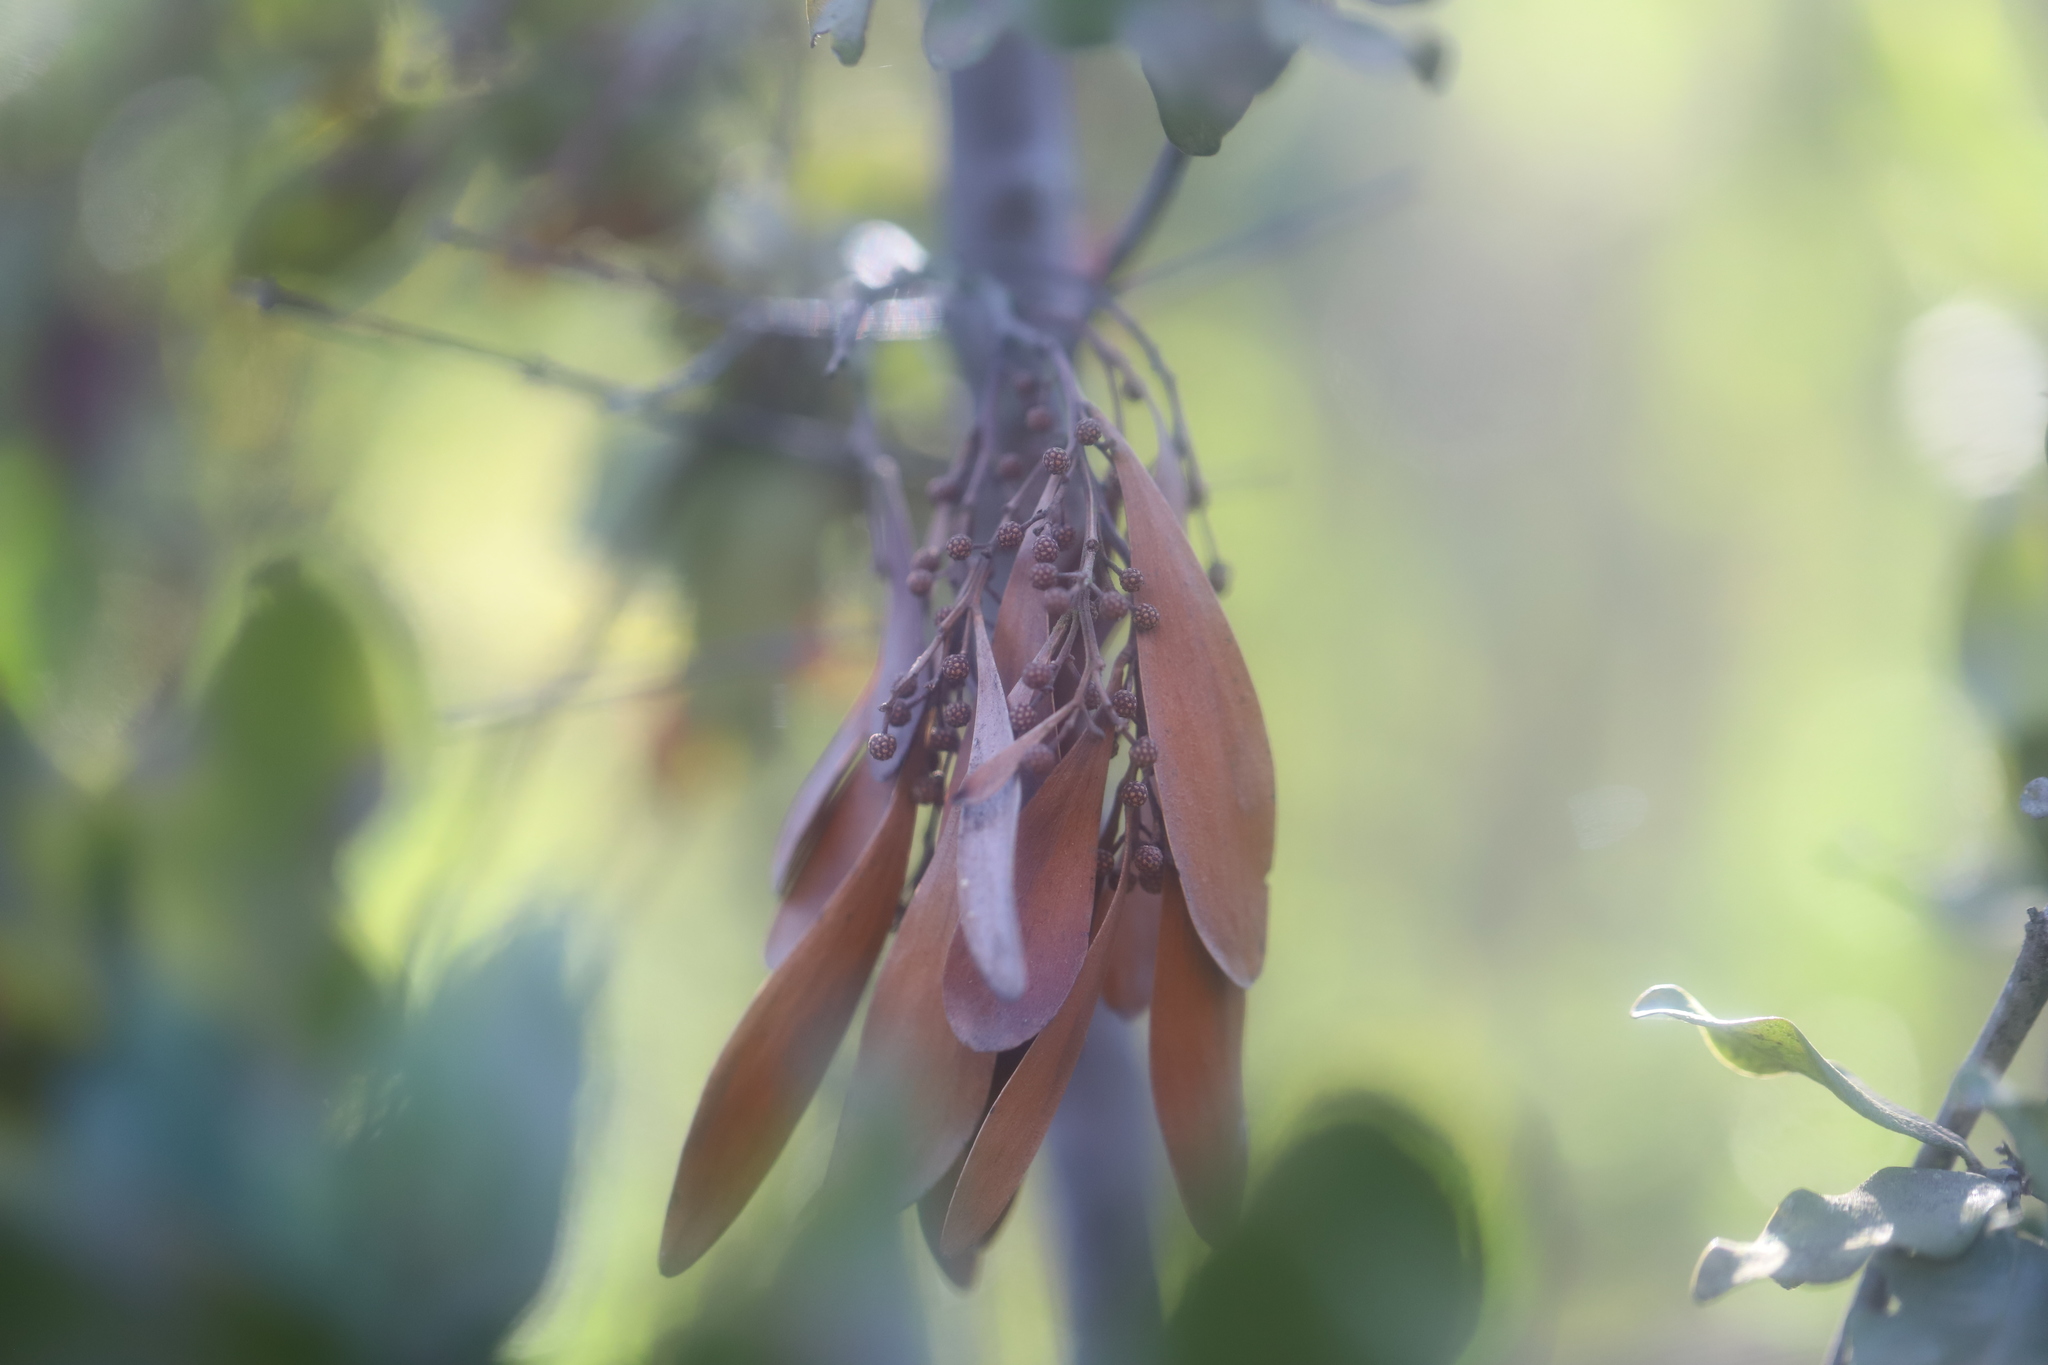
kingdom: Plantae
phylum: Tracheophyta
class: Magnoliopsida
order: Santalales
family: Loranthaceae
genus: Tristerix
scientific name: Tristerix corymbosus
